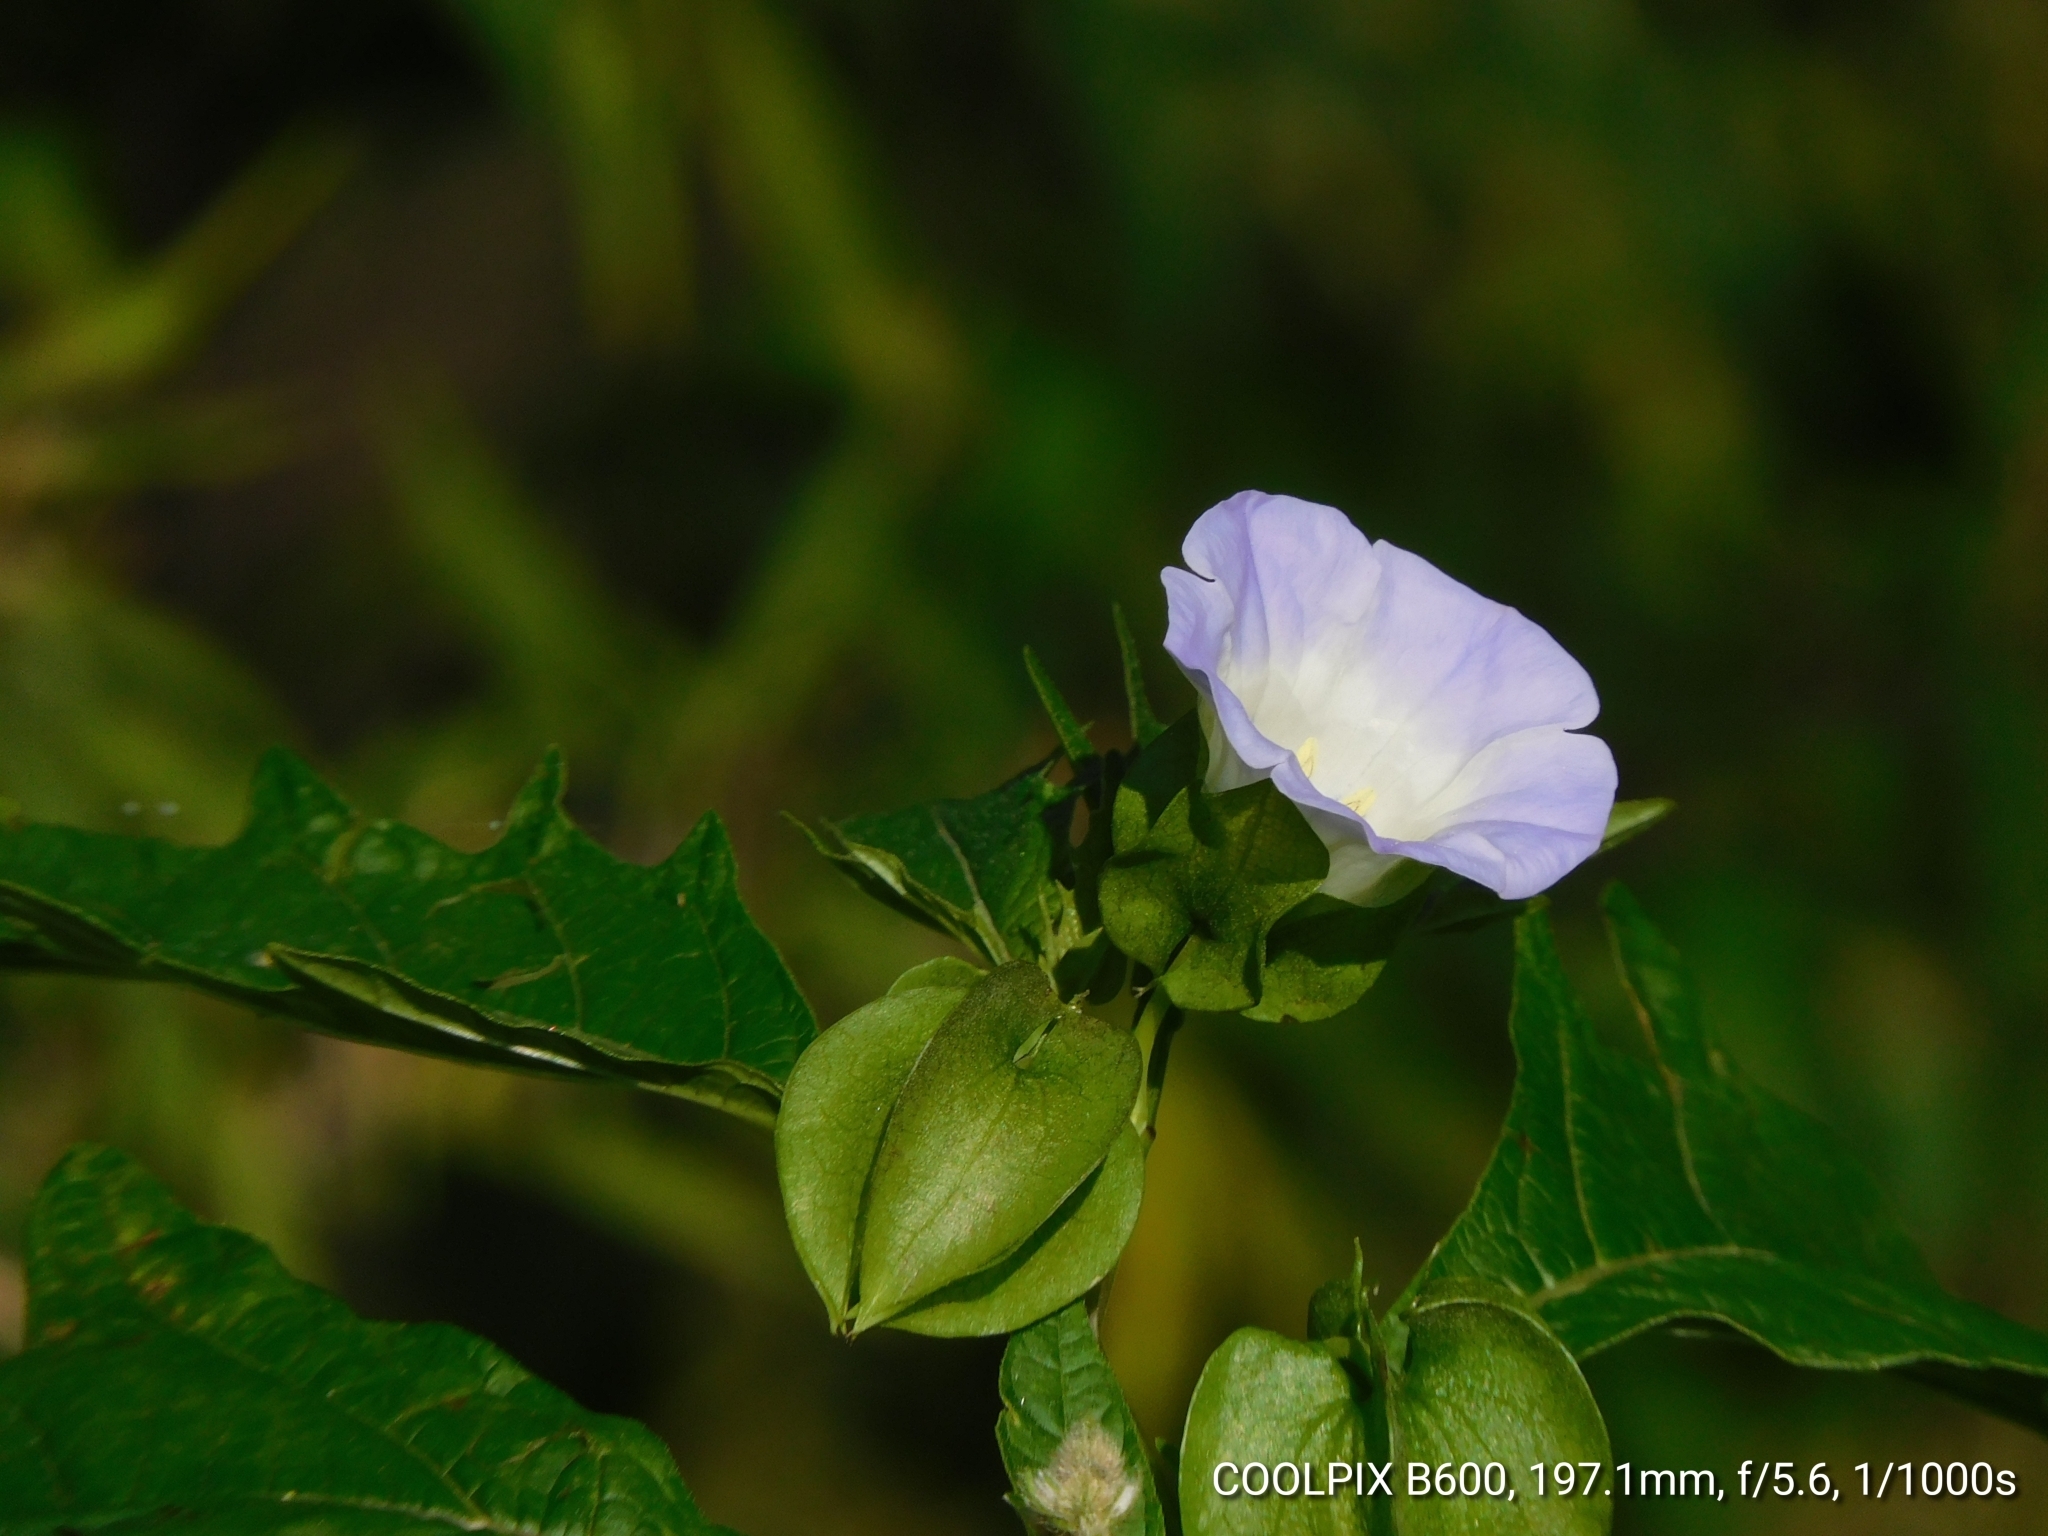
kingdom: Plantae
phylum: Tracheophyta
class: Magnoliopsida
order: Solanales
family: Solanaceae
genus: Nicandra
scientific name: Nicandra physalodes
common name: Apple-of-peru
